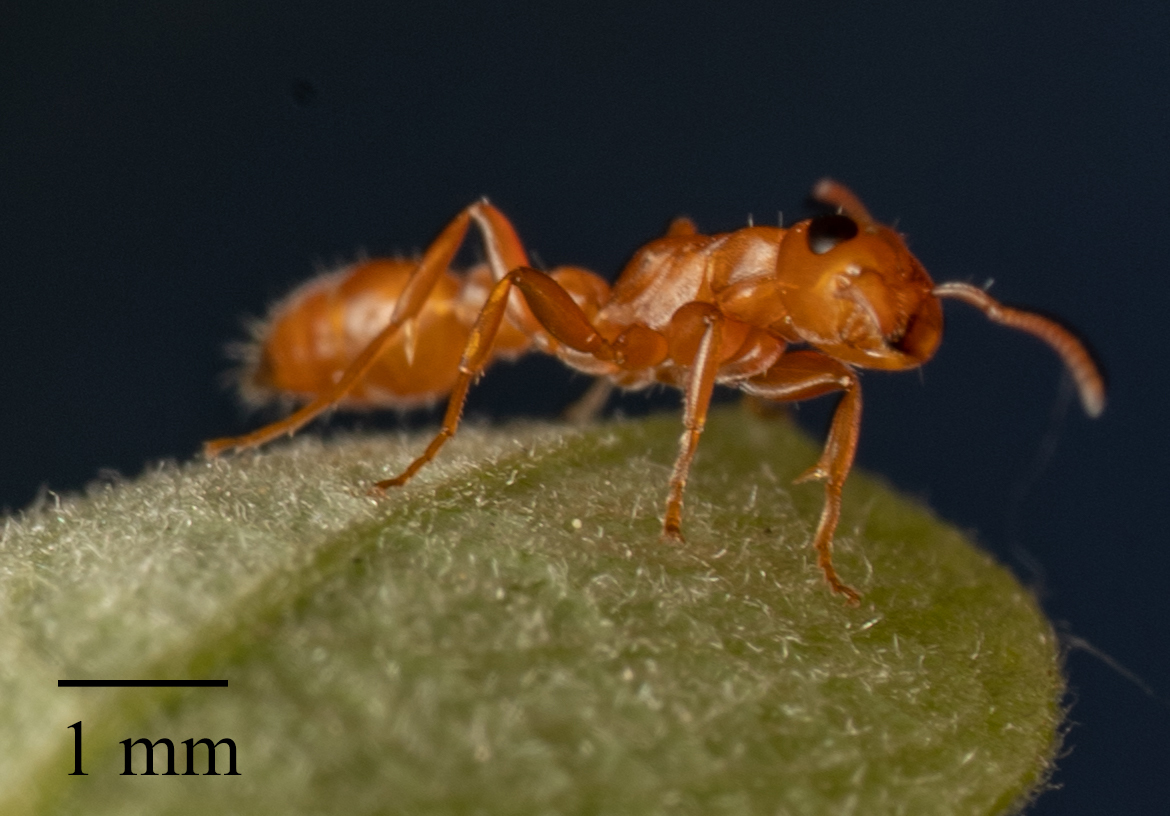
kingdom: Animalia
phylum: Arthropoda
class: Insecta
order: Hymenoptera
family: Formicidae
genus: Pseudomyrmex
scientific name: Pseudomyrmex apache
